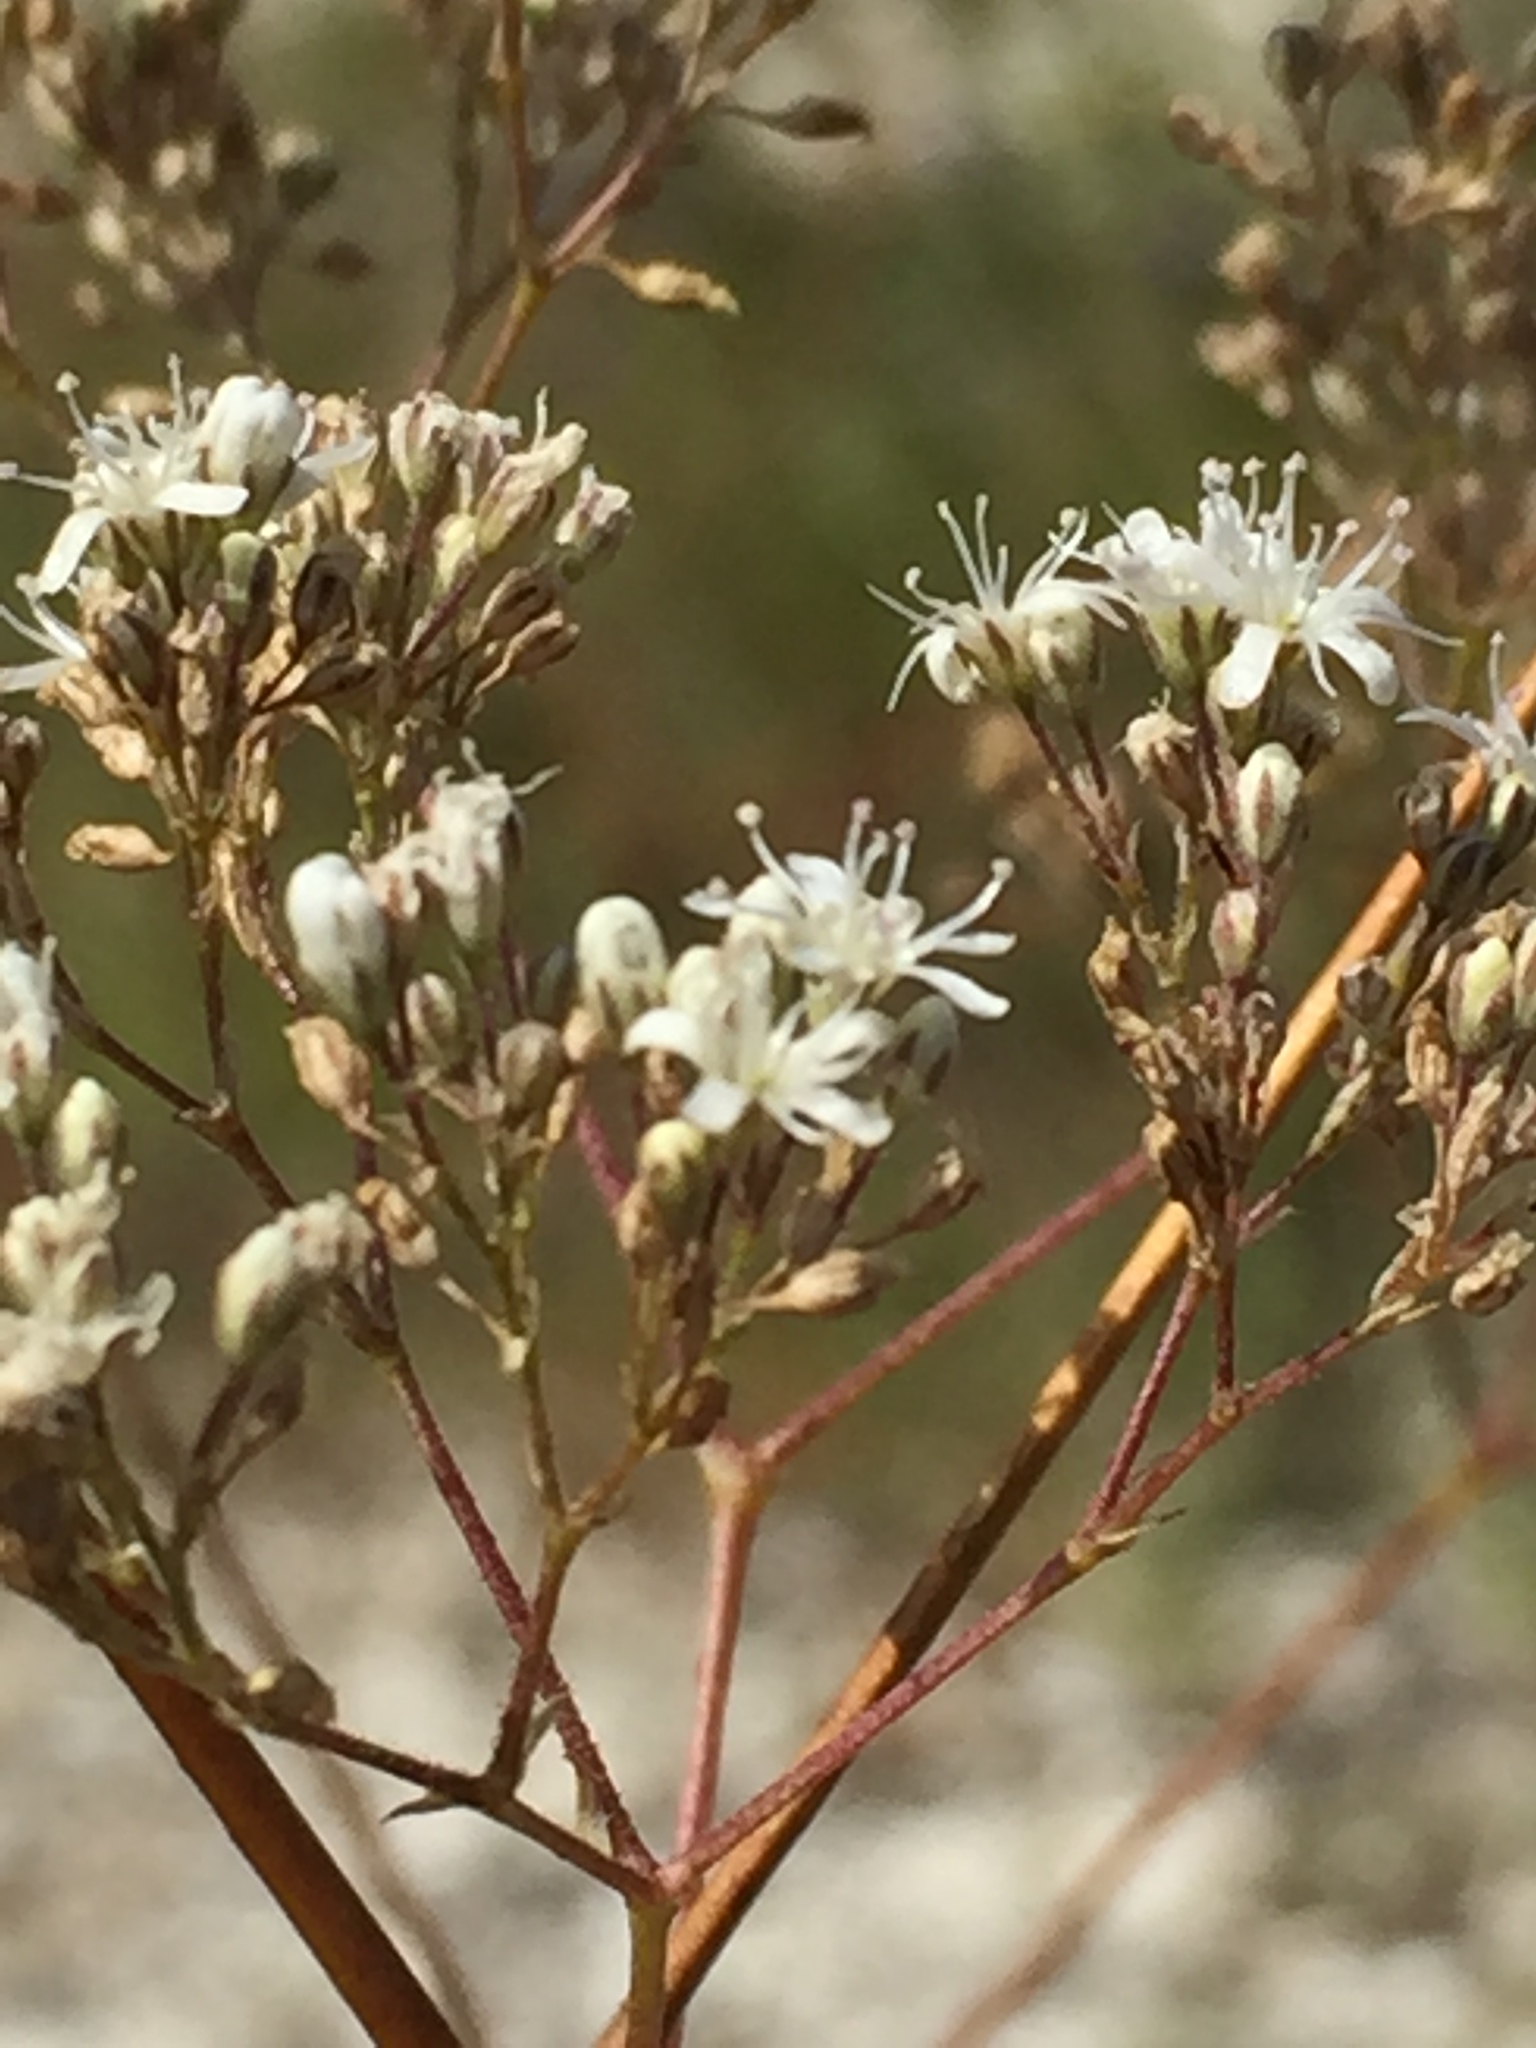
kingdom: Plantae
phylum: Tracheophyta
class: Magnoliopsida
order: Caryophyllales
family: Caryophyllaceae
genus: Gypsophila
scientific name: Gypsophila altissima
